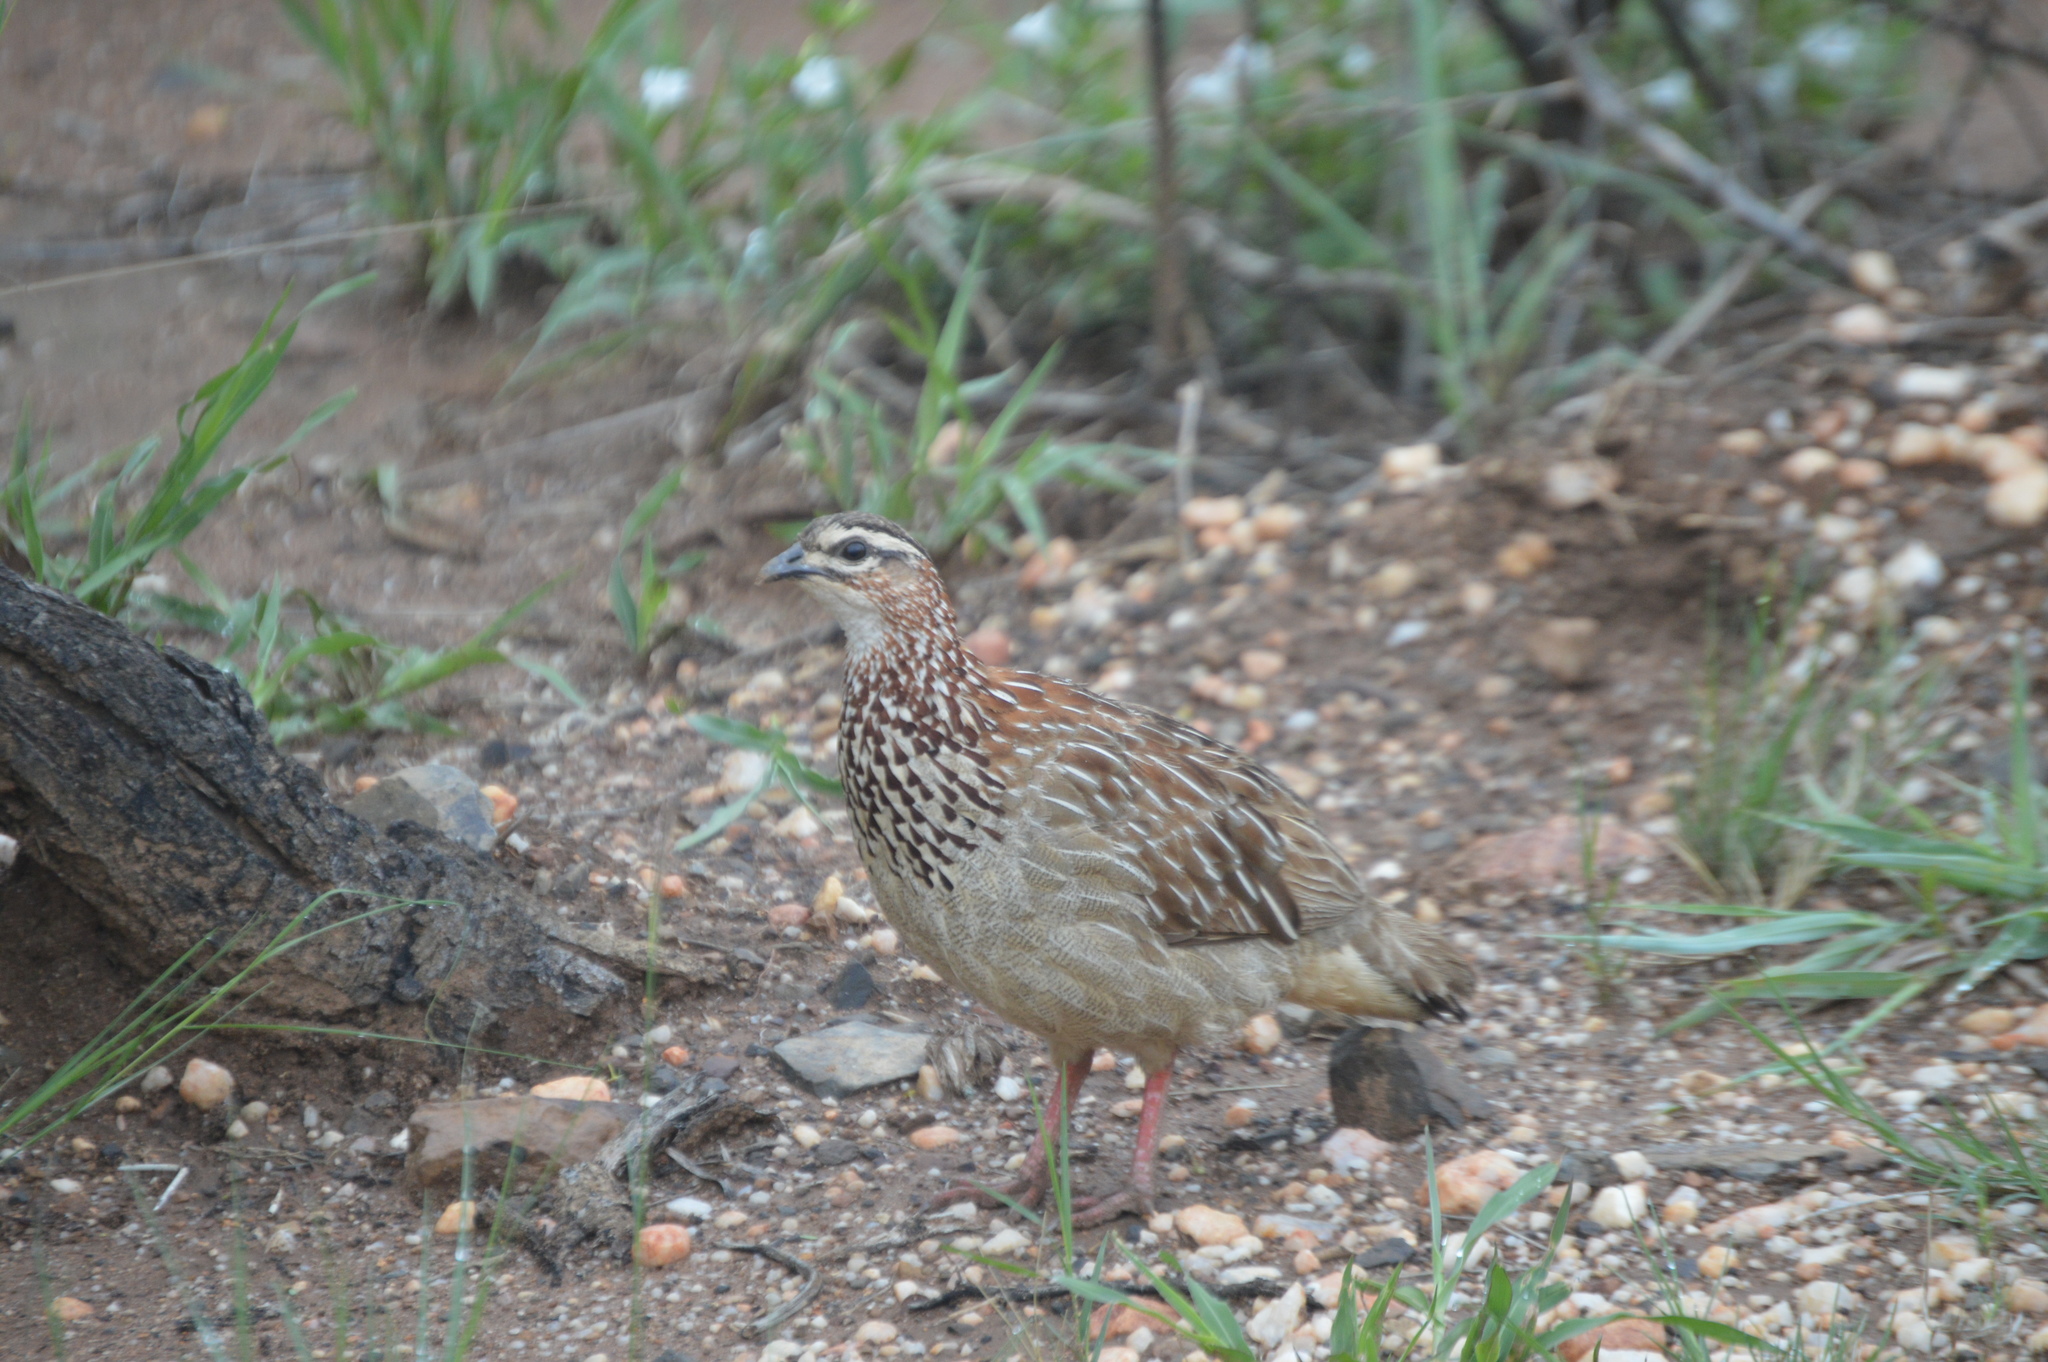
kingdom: Animalia
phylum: Chordata
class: Aves
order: Galliformes
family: Phasianidae
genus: Ortygornis
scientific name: Ortygornis sephaena
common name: Crested francolin
